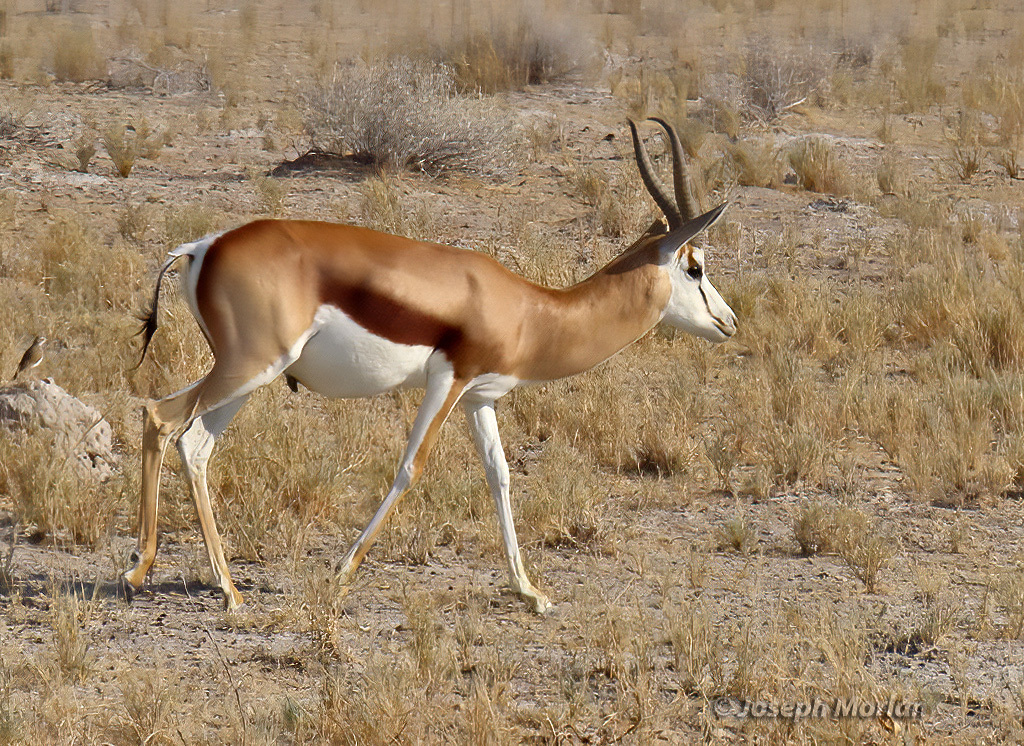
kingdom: Animalia
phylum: Chordata
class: Mammalia
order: Artiodactyla
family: Bovidae
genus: Antidorcas
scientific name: Antidorcas marsupialis
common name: Springbok
